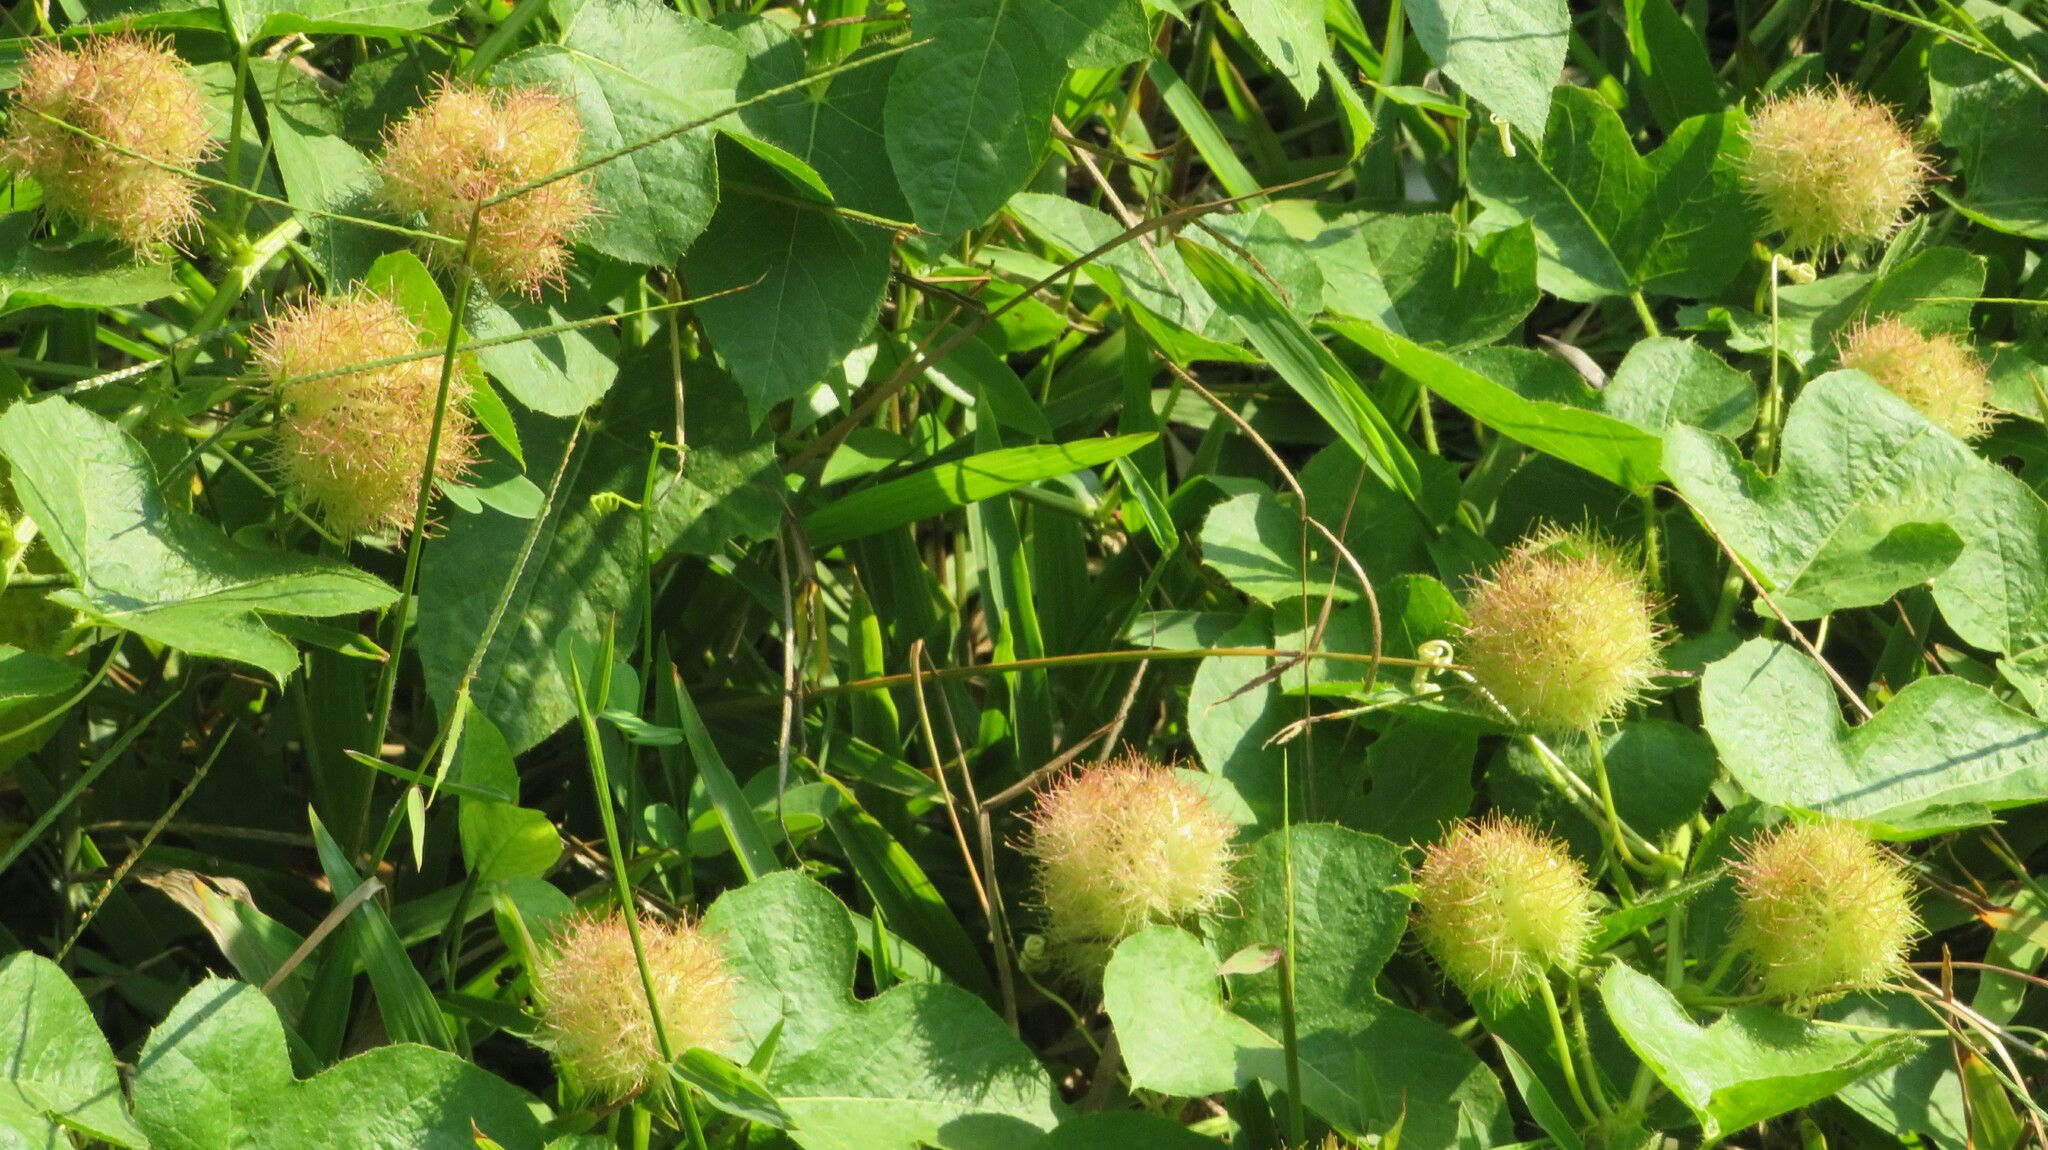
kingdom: Plantae
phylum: Tracheophyta
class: Magnoliopsida
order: Malpighiales
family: Passifloraceae
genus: Passiflora
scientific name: Passiflora vesicaria
